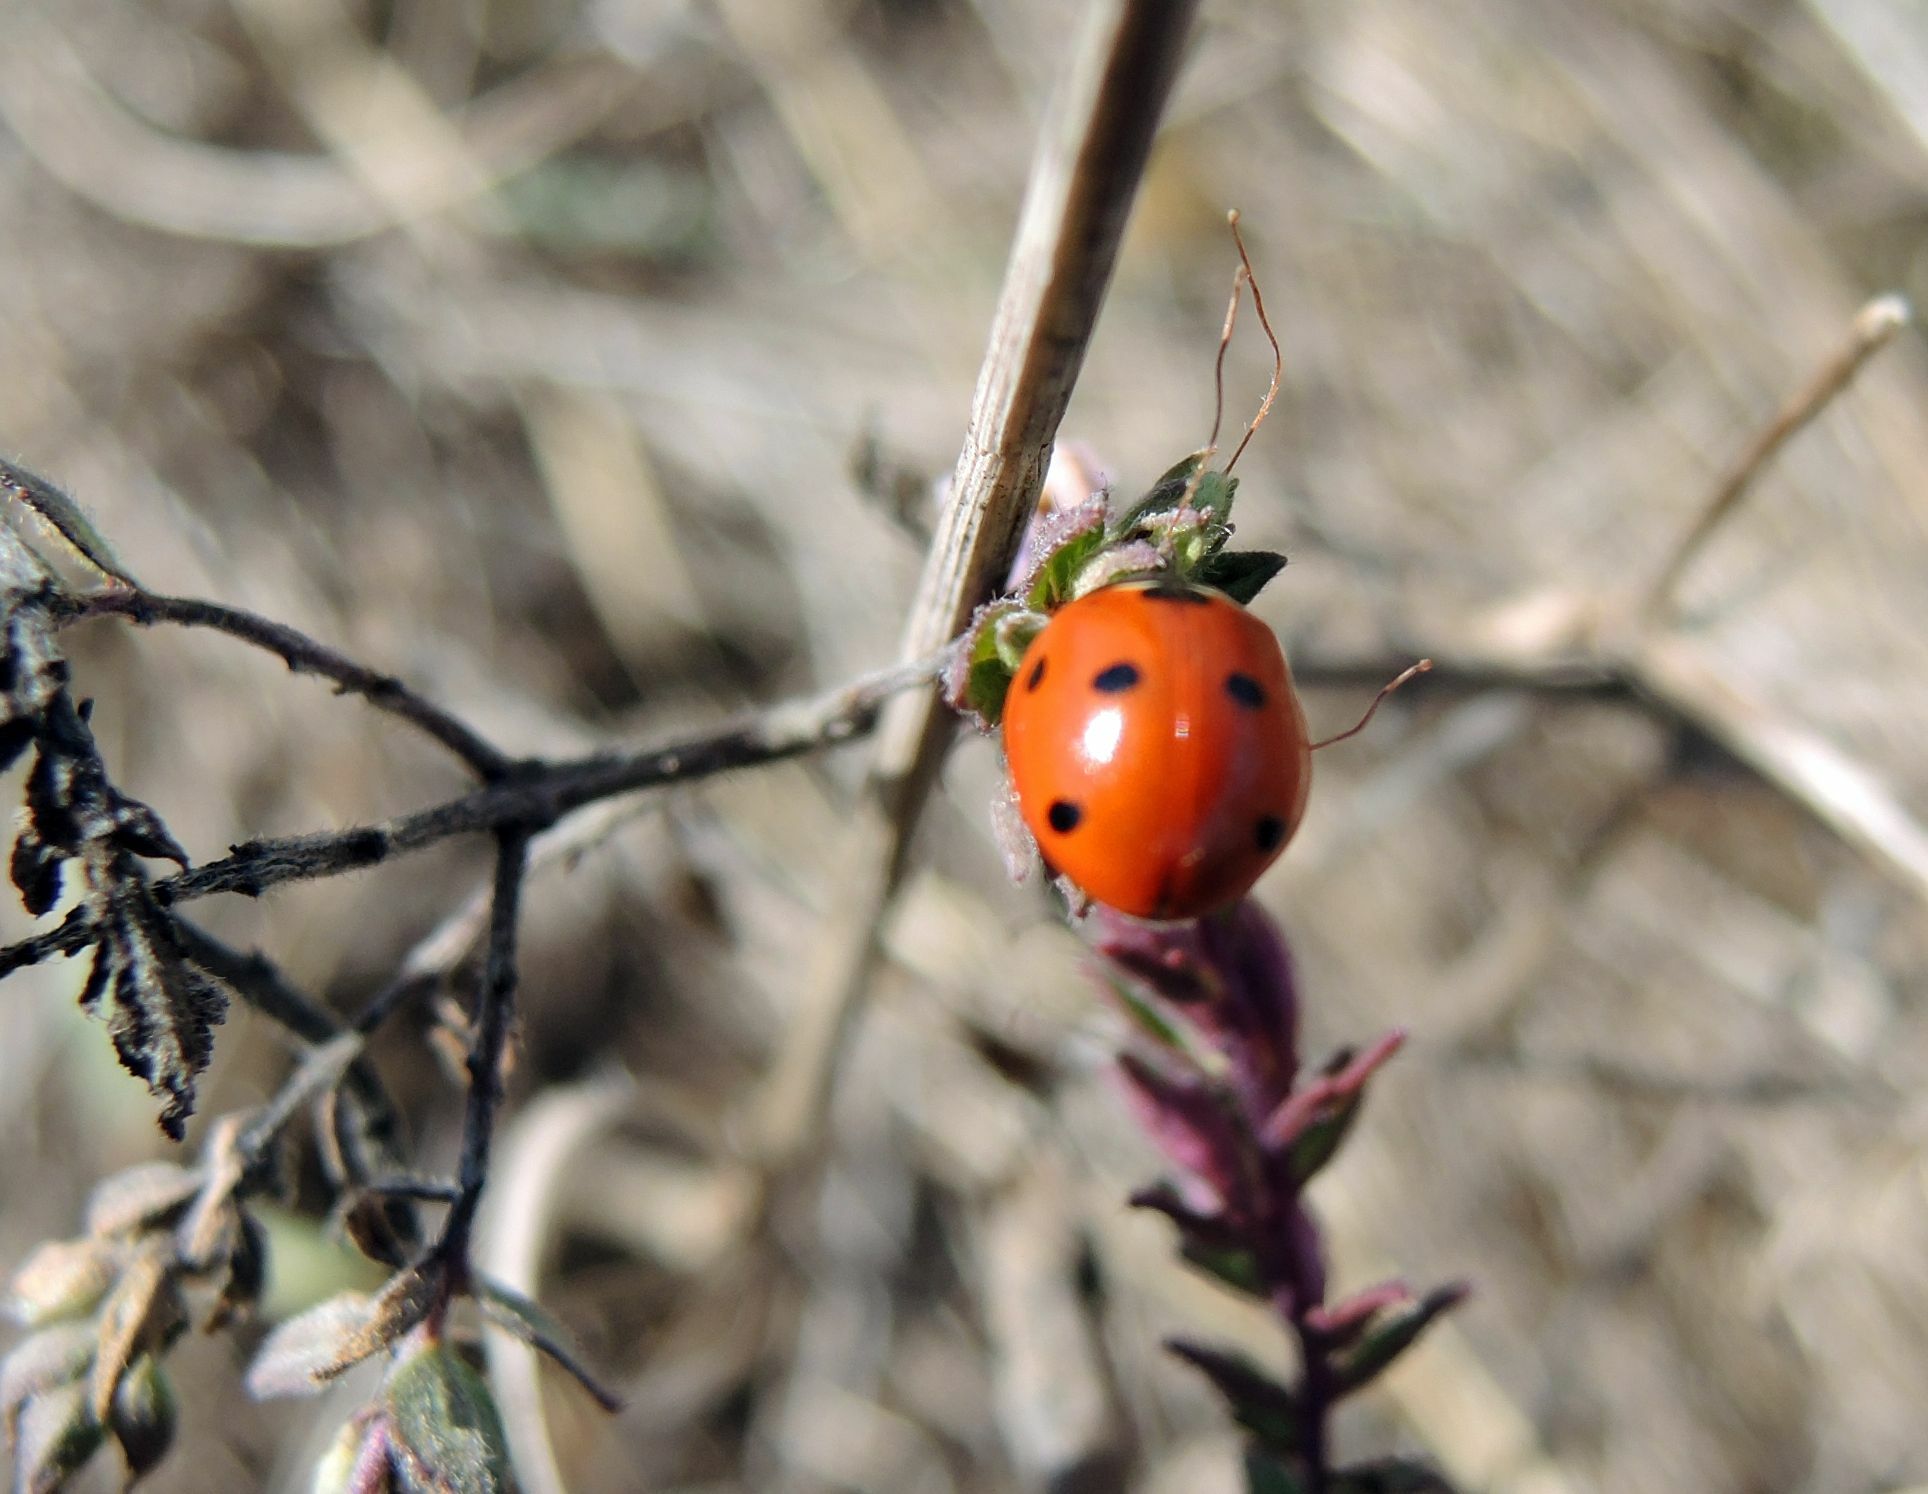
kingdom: Animalia
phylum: Arthropoda
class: Insecta
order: Coleoptera
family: Coccinellidae
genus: Coccinella
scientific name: Coccinella septempunctata
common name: Sevenspotted lady beetle
